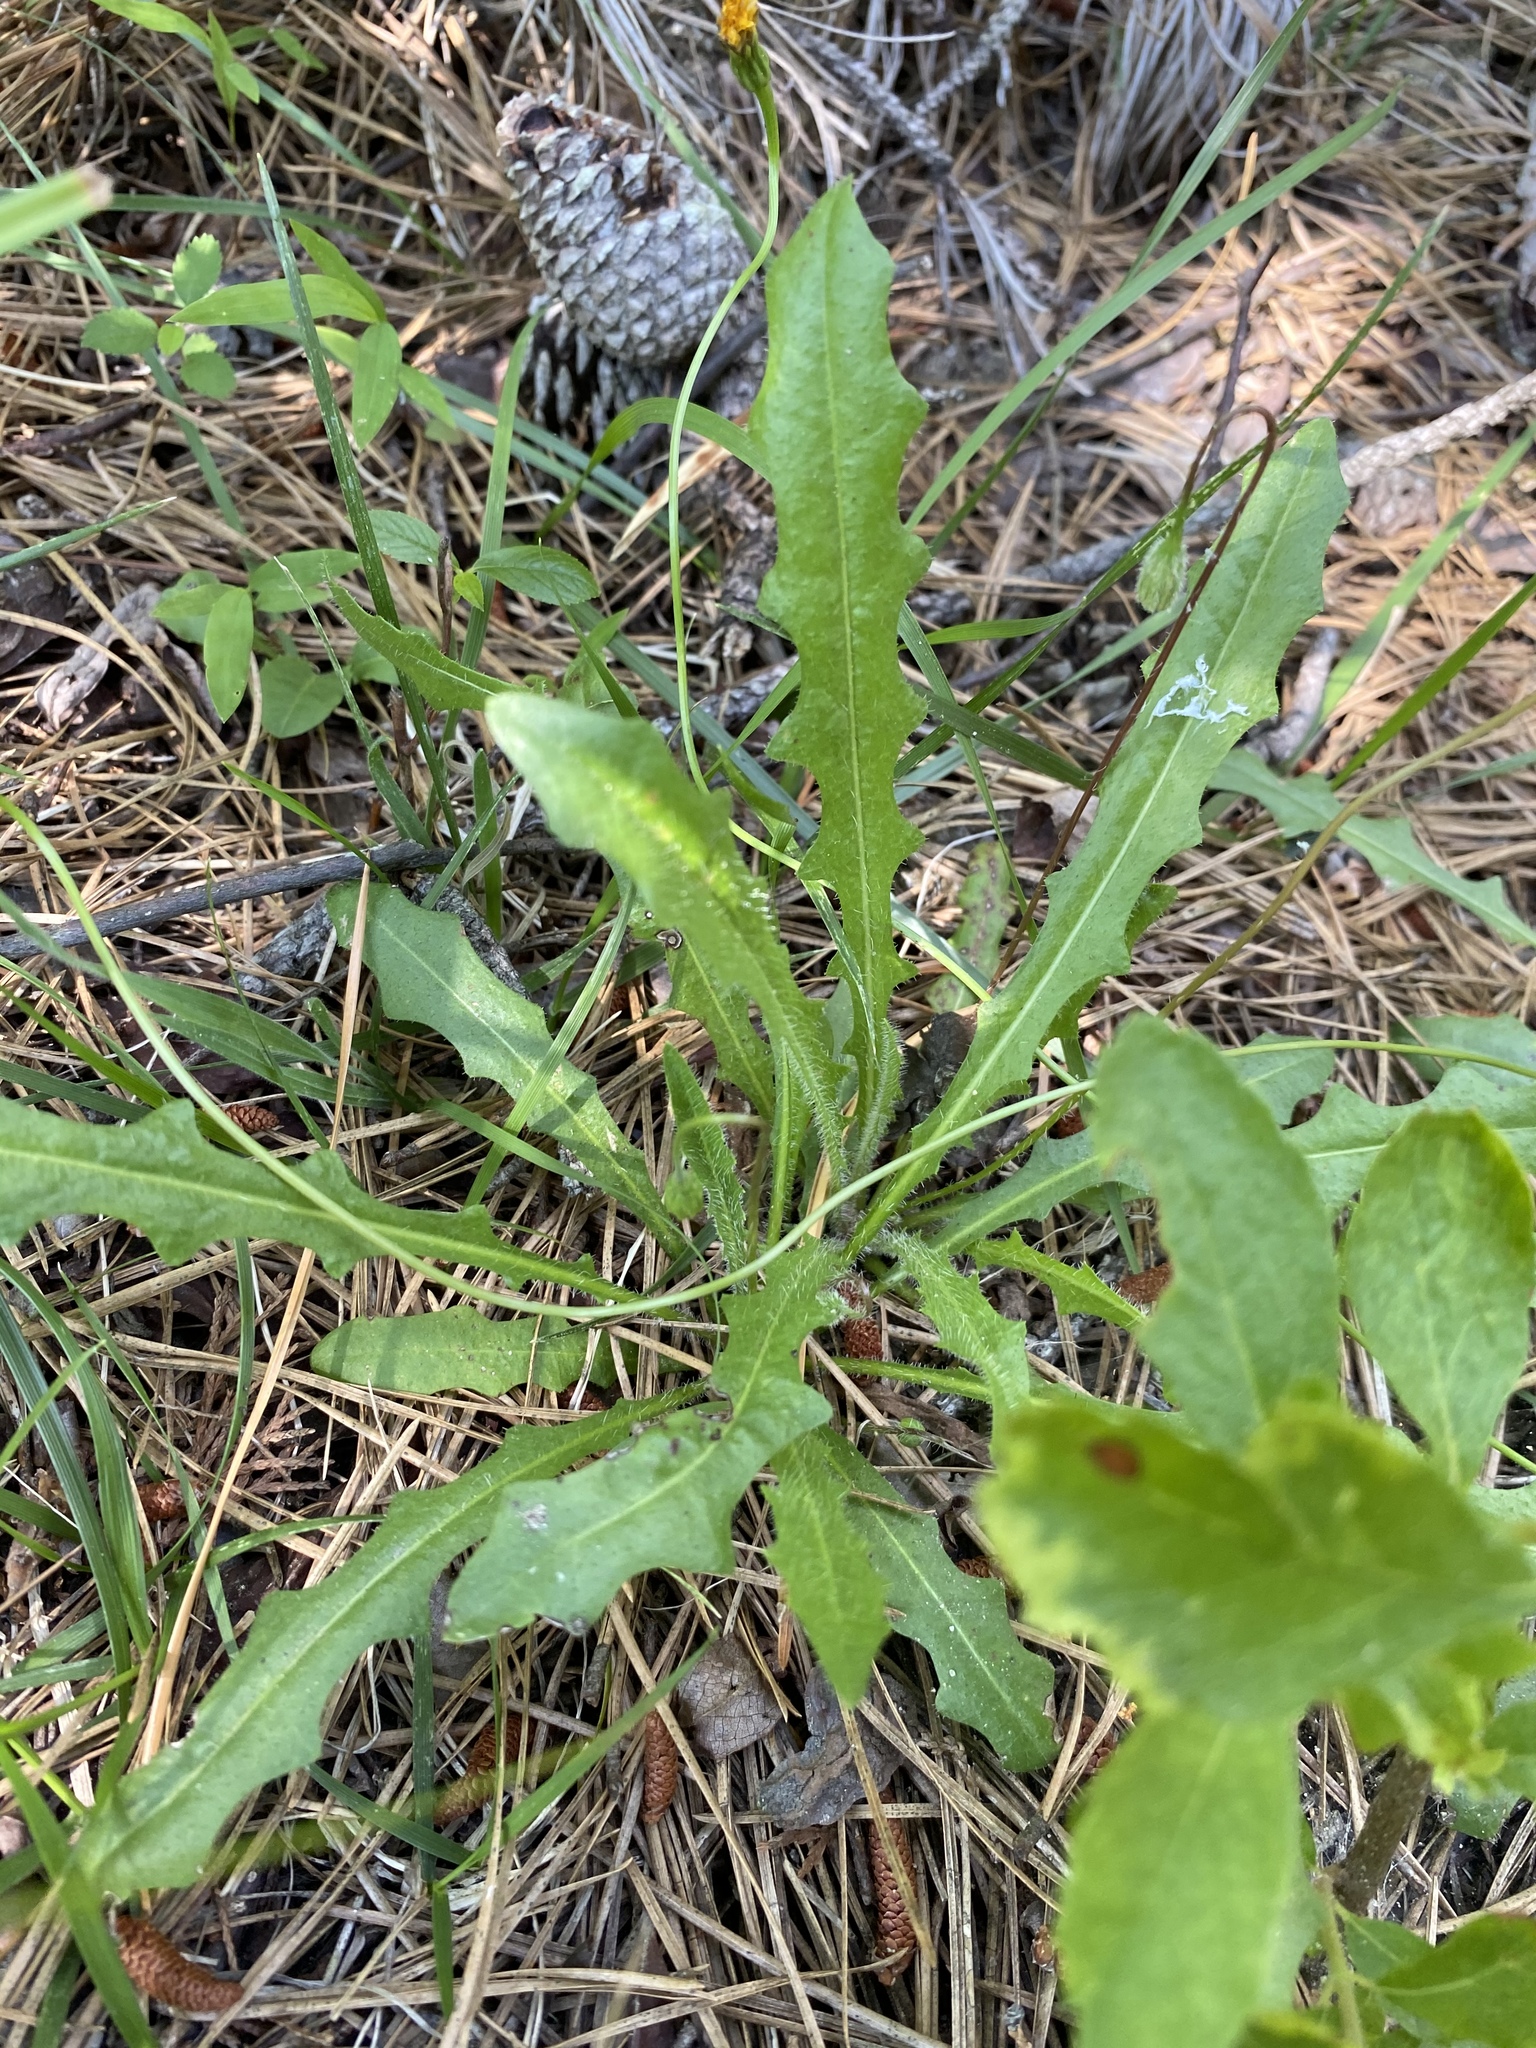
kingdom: Plantae
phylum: Tracheophyta
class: Magnoliopsida
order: Asterales
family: Asteraceae
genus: Krigia
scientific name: Krigia virginica
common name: Virginia dwarf-dandelion
